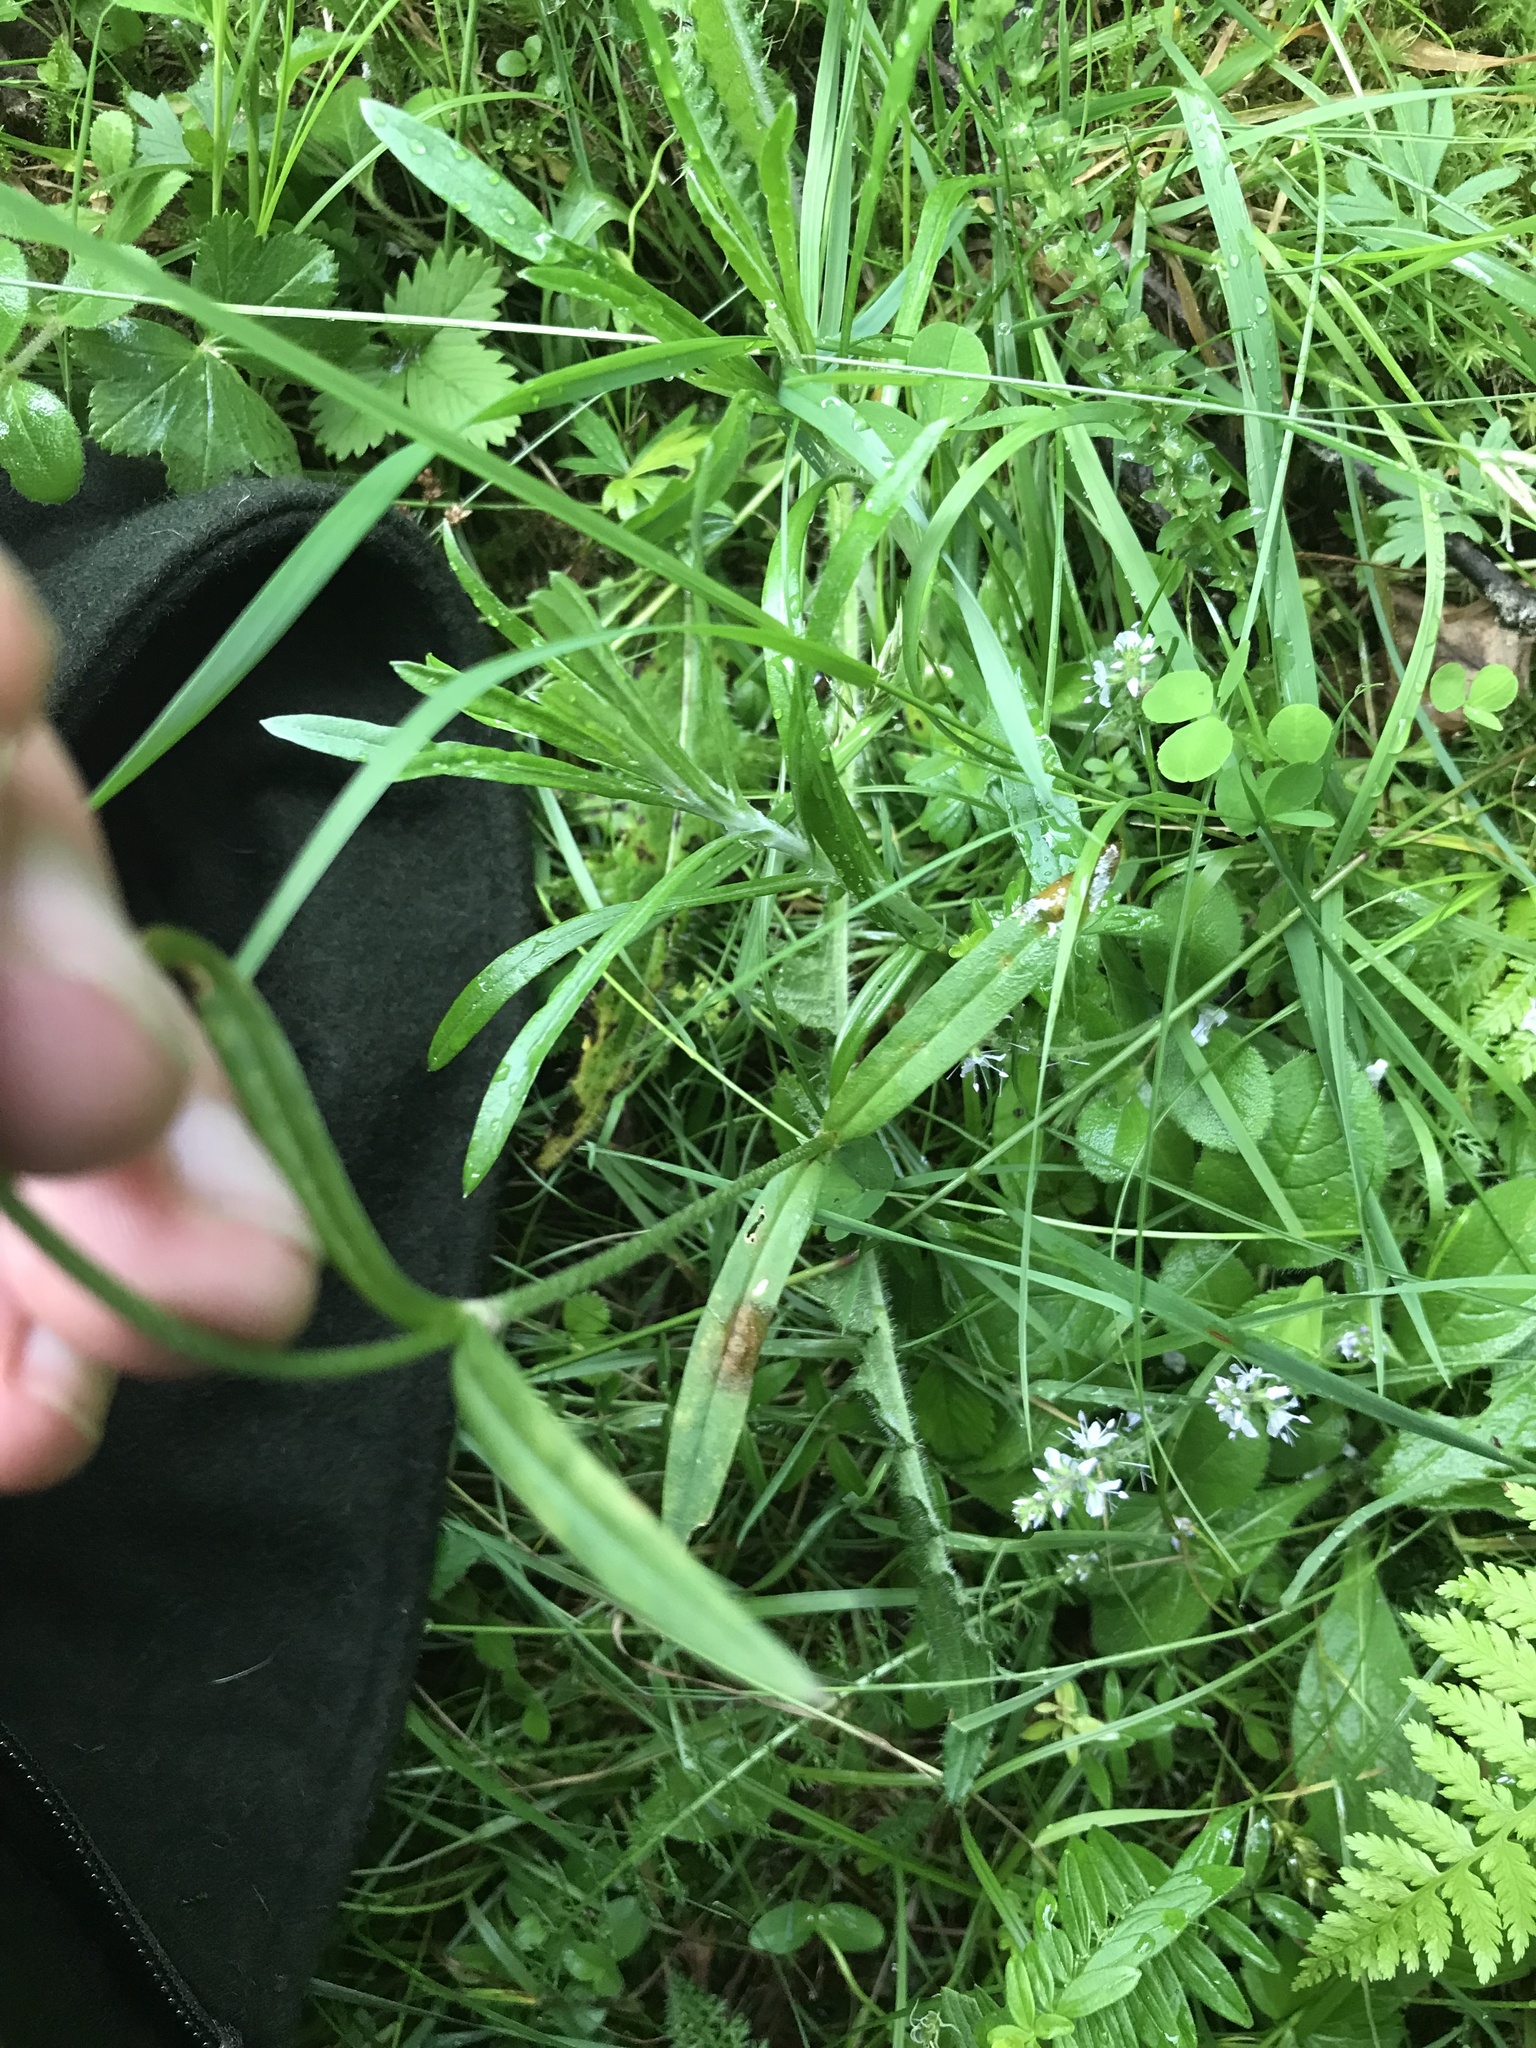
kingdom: Plantae
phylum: Tracheophyta
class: Magnoliopsida
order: Caryophyllales
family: Caryophyllaceae
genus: Silene
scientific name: Silene flos-cuculi
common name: Ragged-robin
